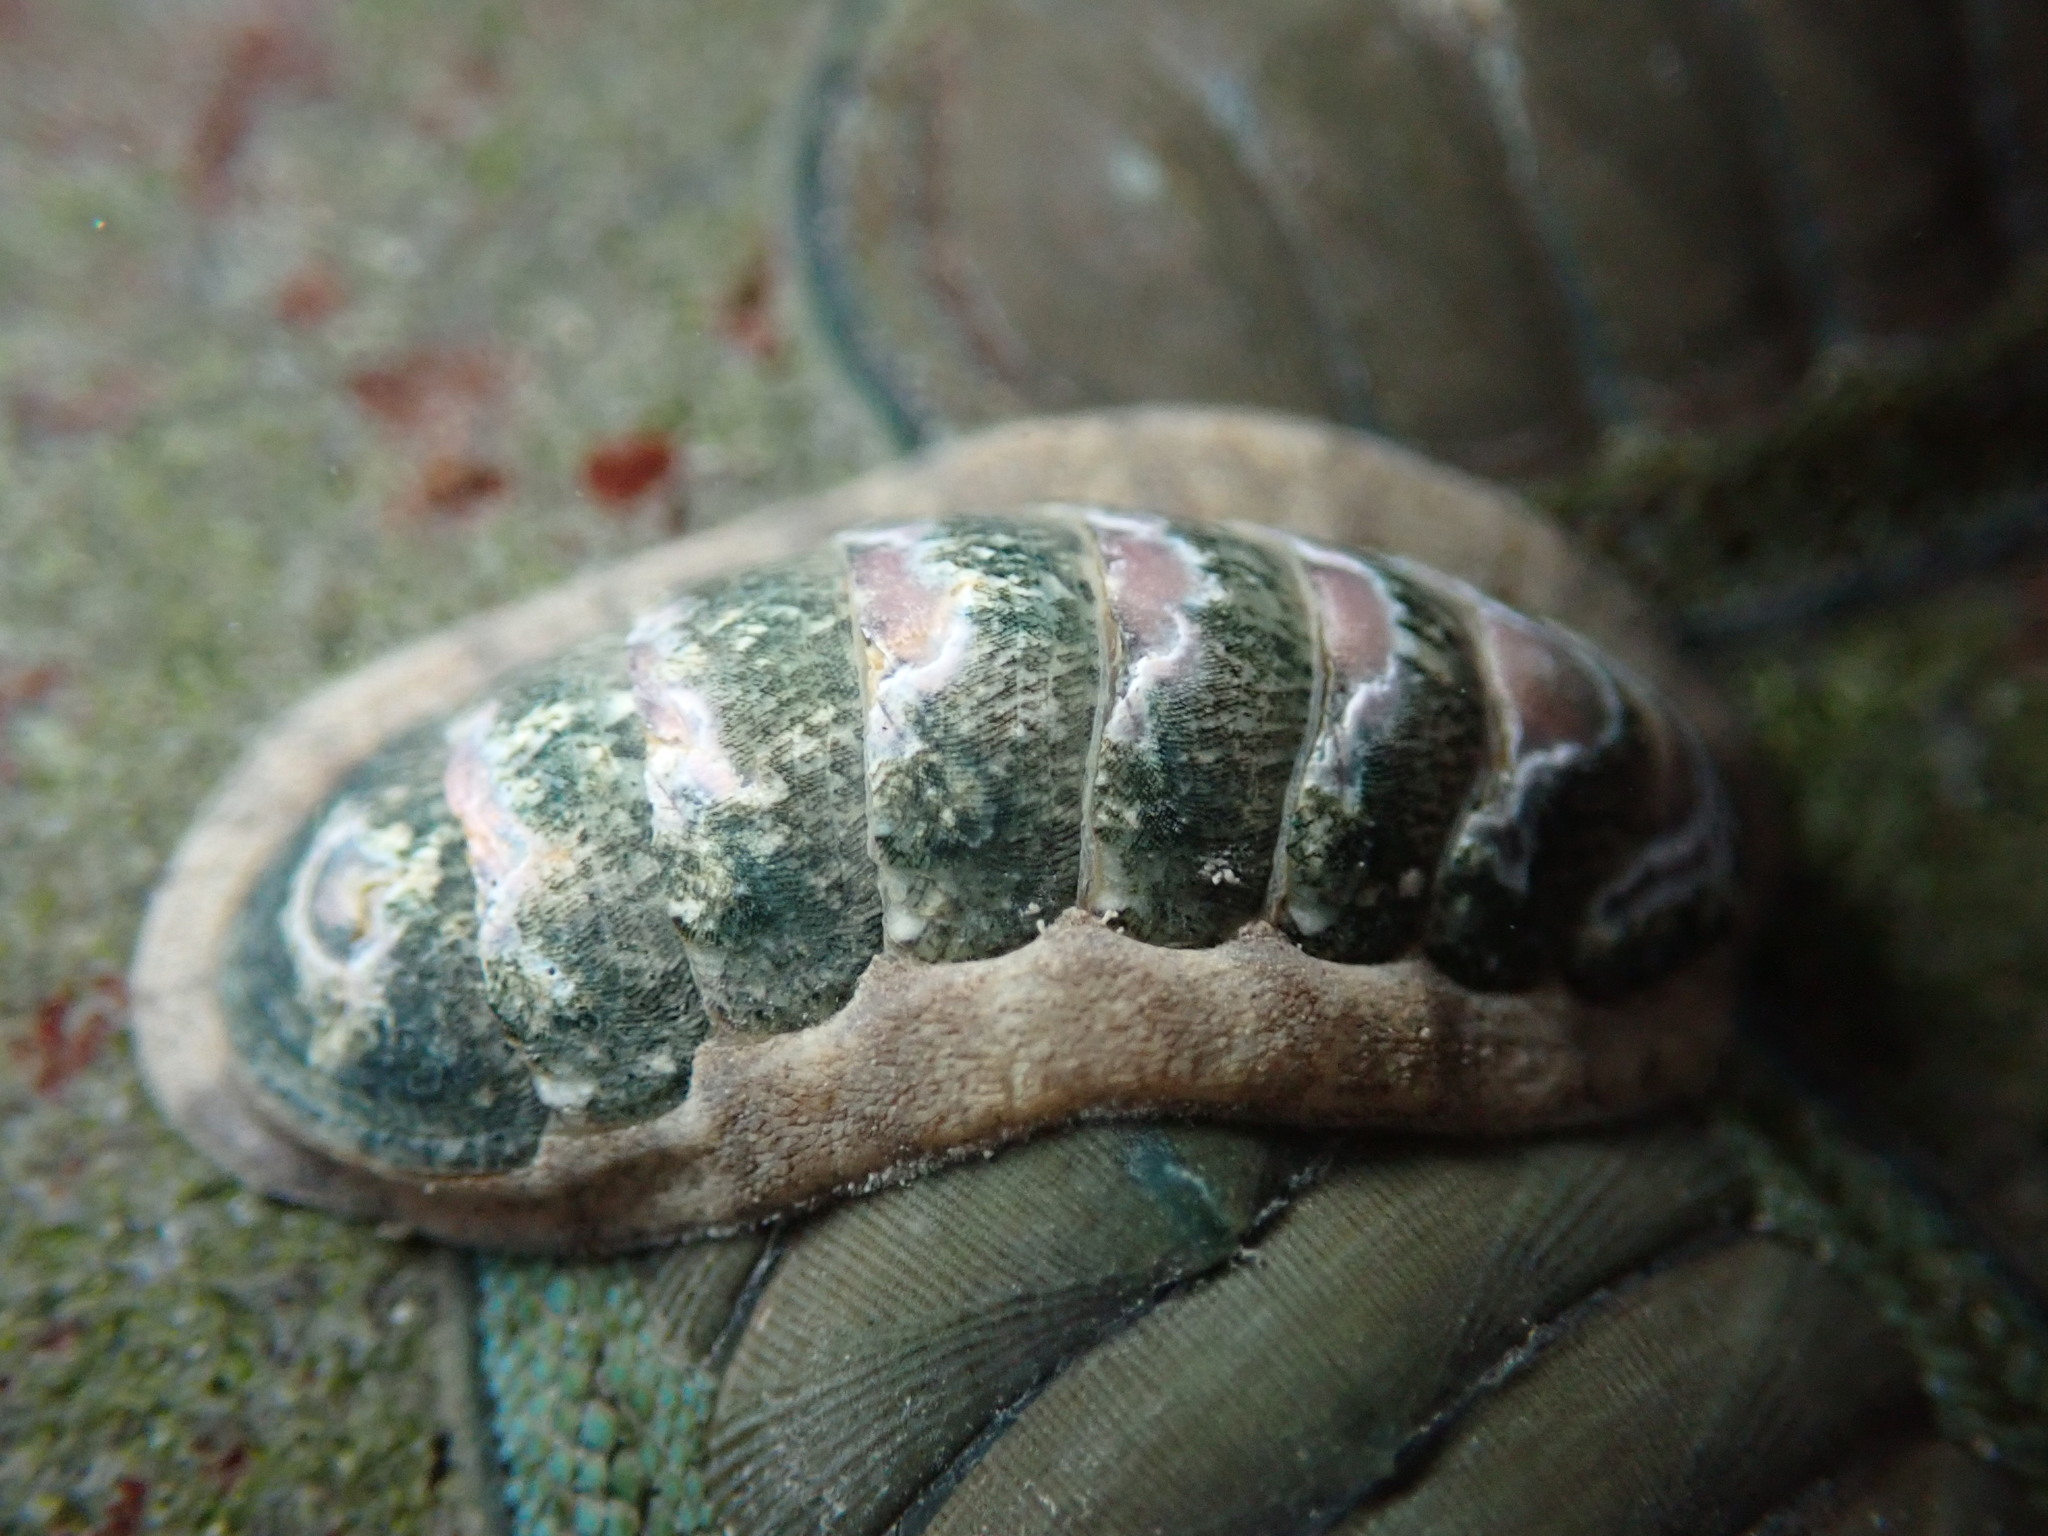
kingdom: Animalia
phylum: Mollusca
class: Polyplacophora
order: Chitonida
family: Ischnochitonidae
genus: Ischnochiton
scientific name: Ischnochiton maorianus
